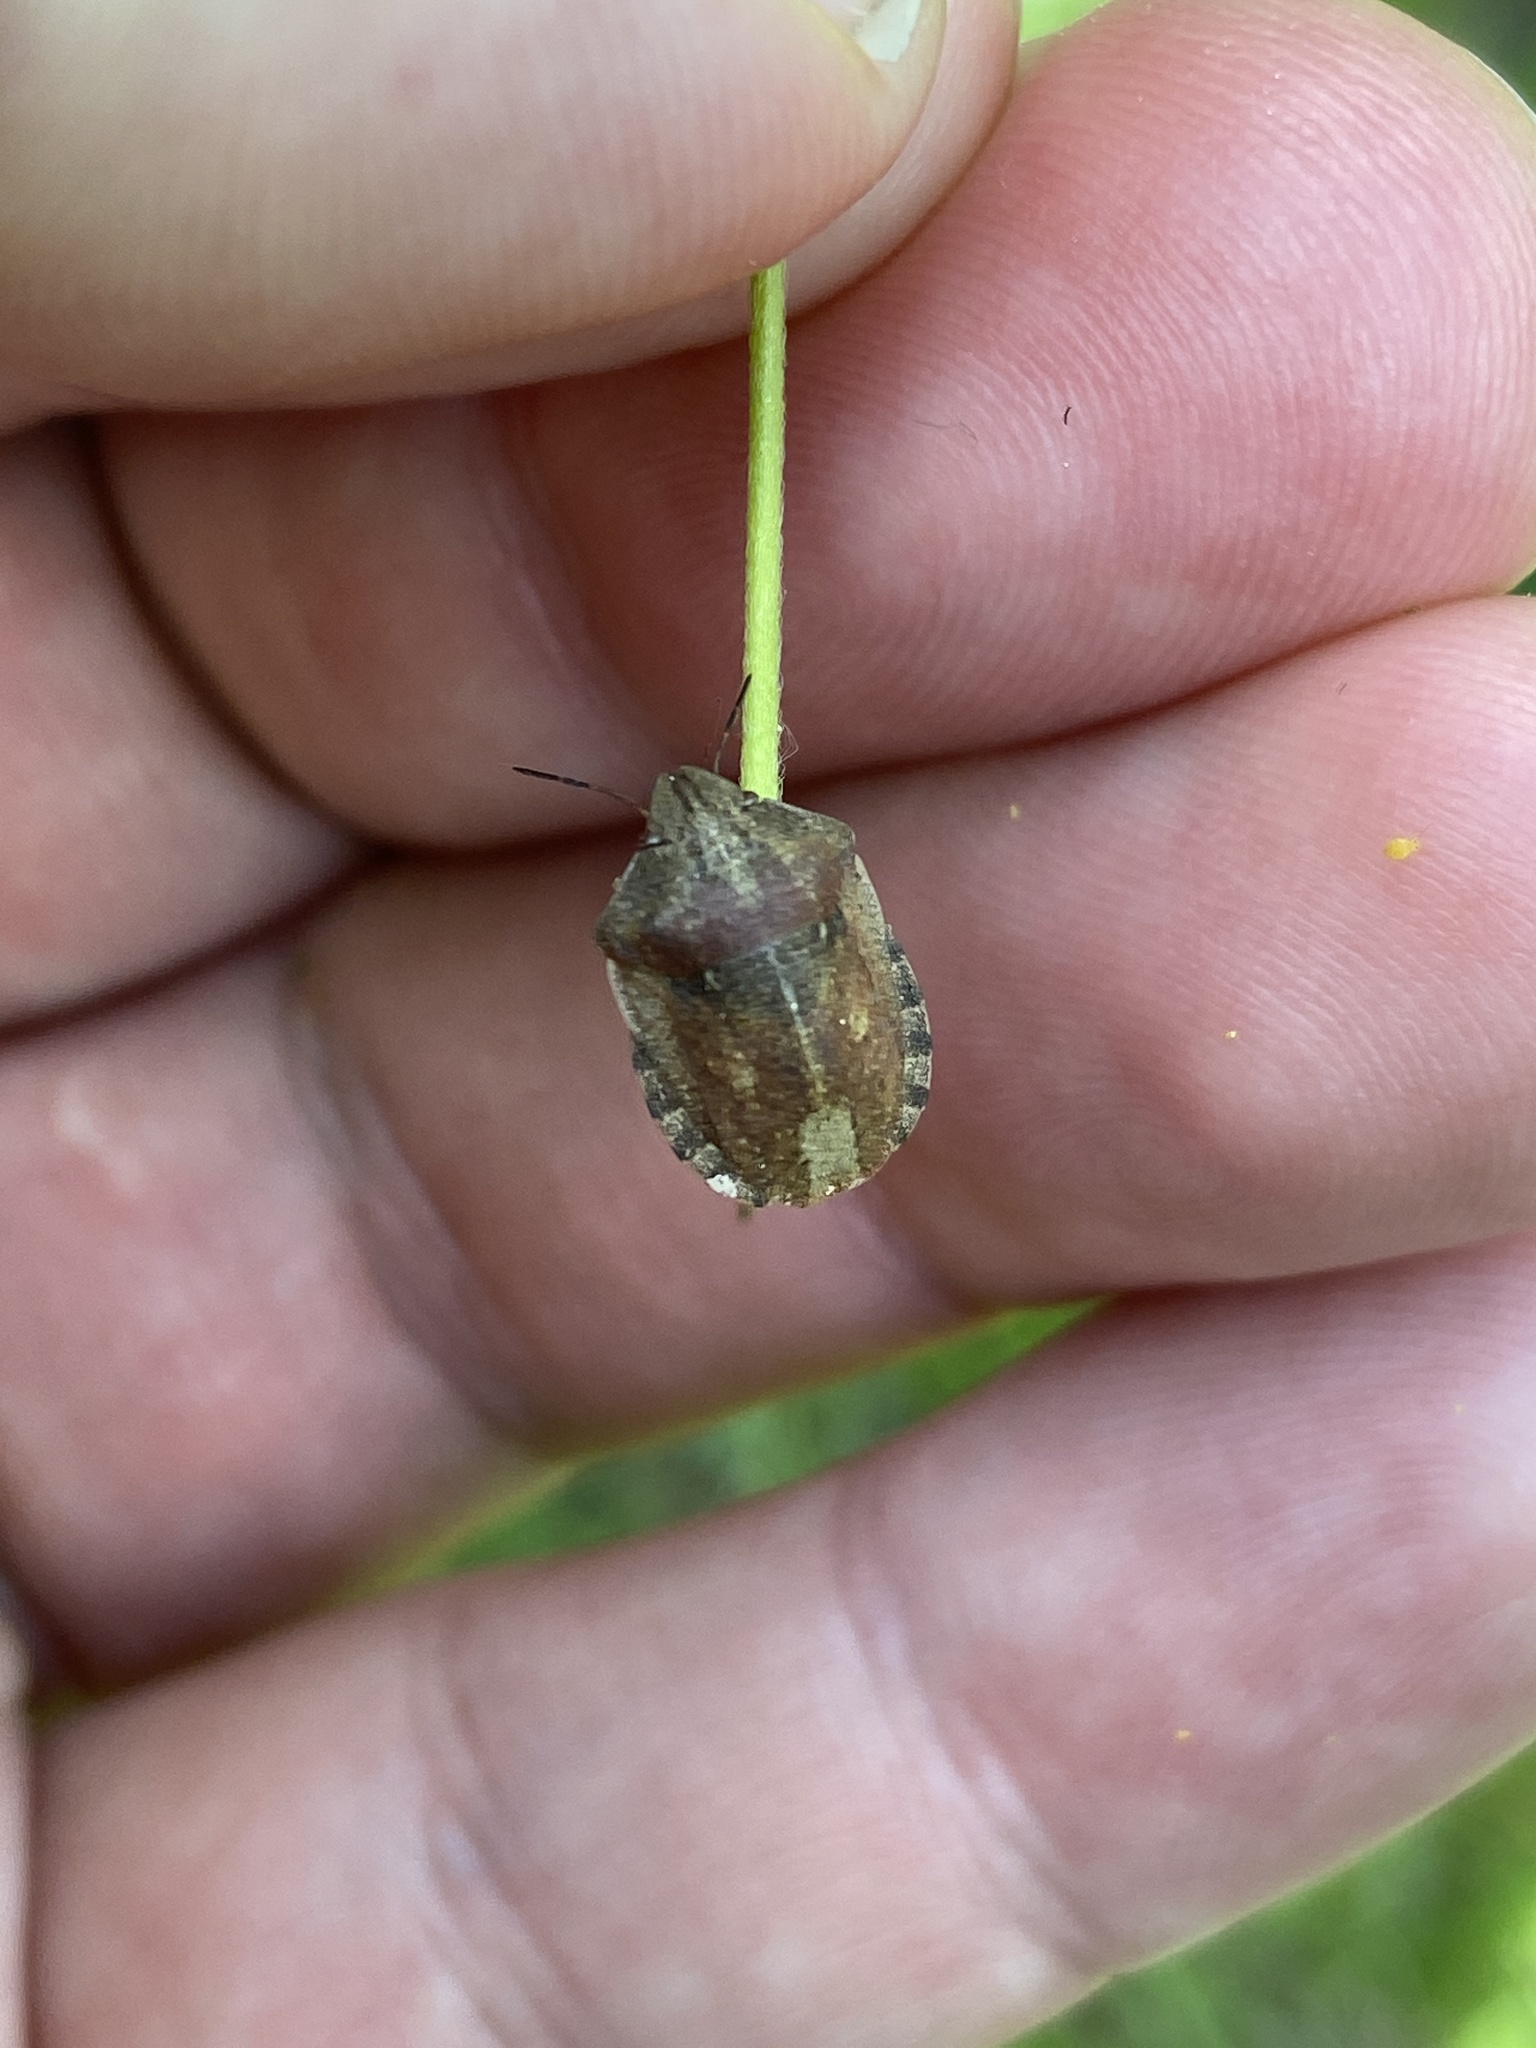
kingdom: Animalia
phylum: Arthropoda
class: Insecta
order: Hemiptera
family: Scutelleridae
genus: Eurygaster
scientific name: Eurygaster testudinaria
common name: Tortoise bug
